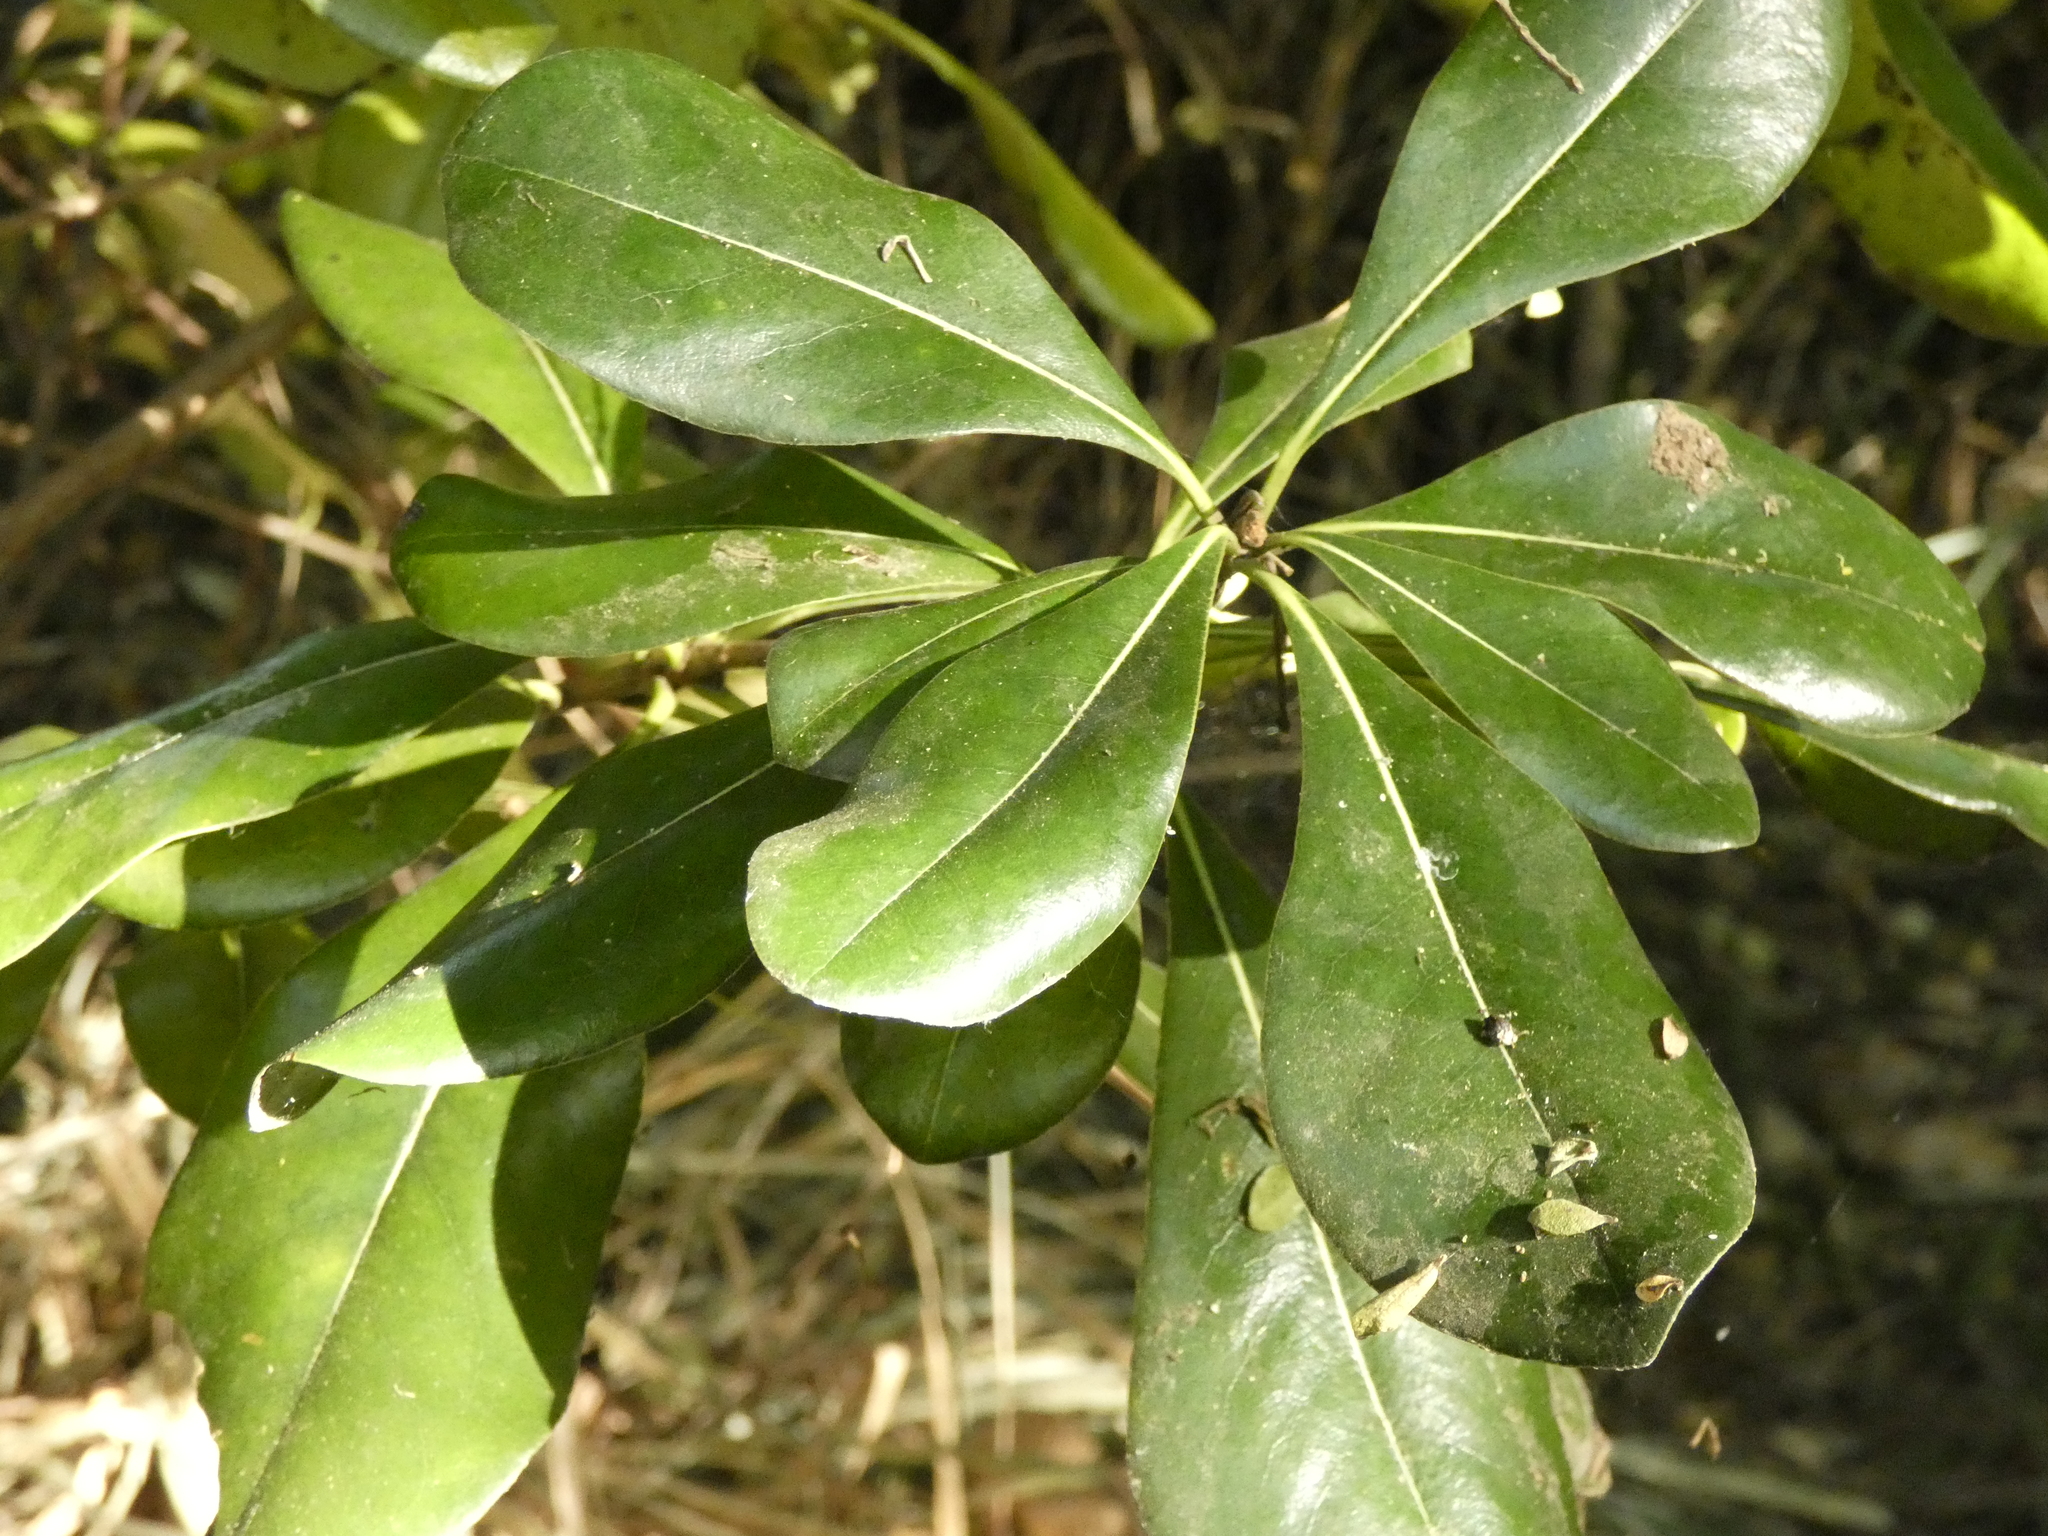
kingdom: Plantae
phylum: Tracheophyta
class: Magnoliopsida
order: Apiales
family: Pittosporaceae
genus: Pittosporum
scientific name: Pittosporum tobira
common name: Japanese cheesewood
